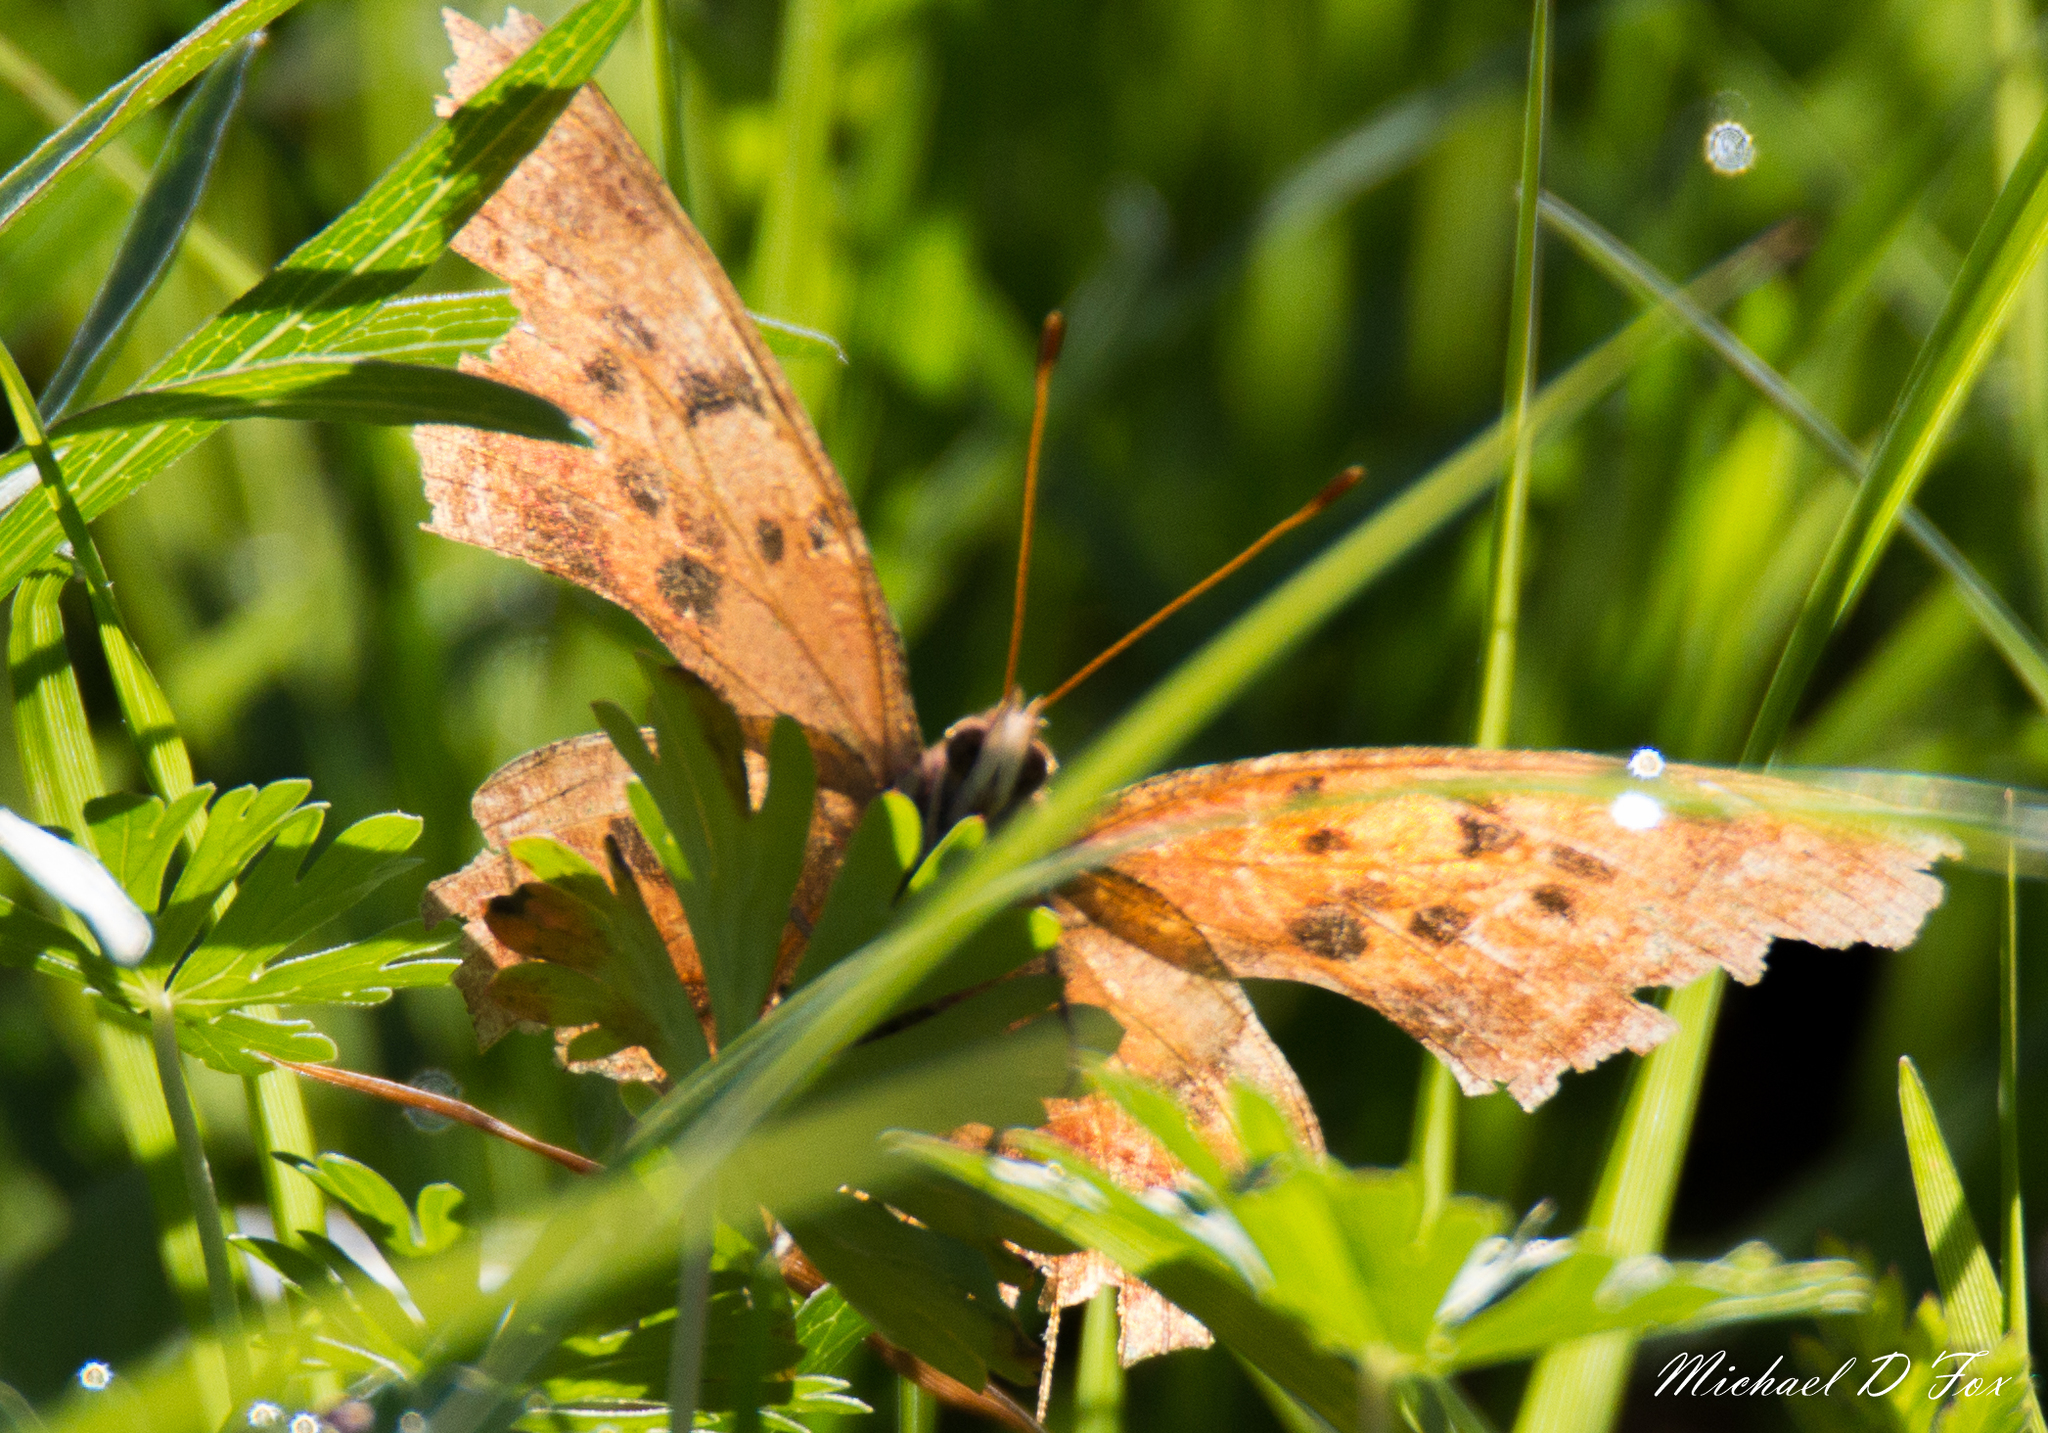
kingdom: Animalia
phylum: Arthropoda
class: Insecta
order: Lepidoptera
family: Nymphalidae
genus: Polygonia
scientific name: Polygonia interrogationis
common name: Question mark
